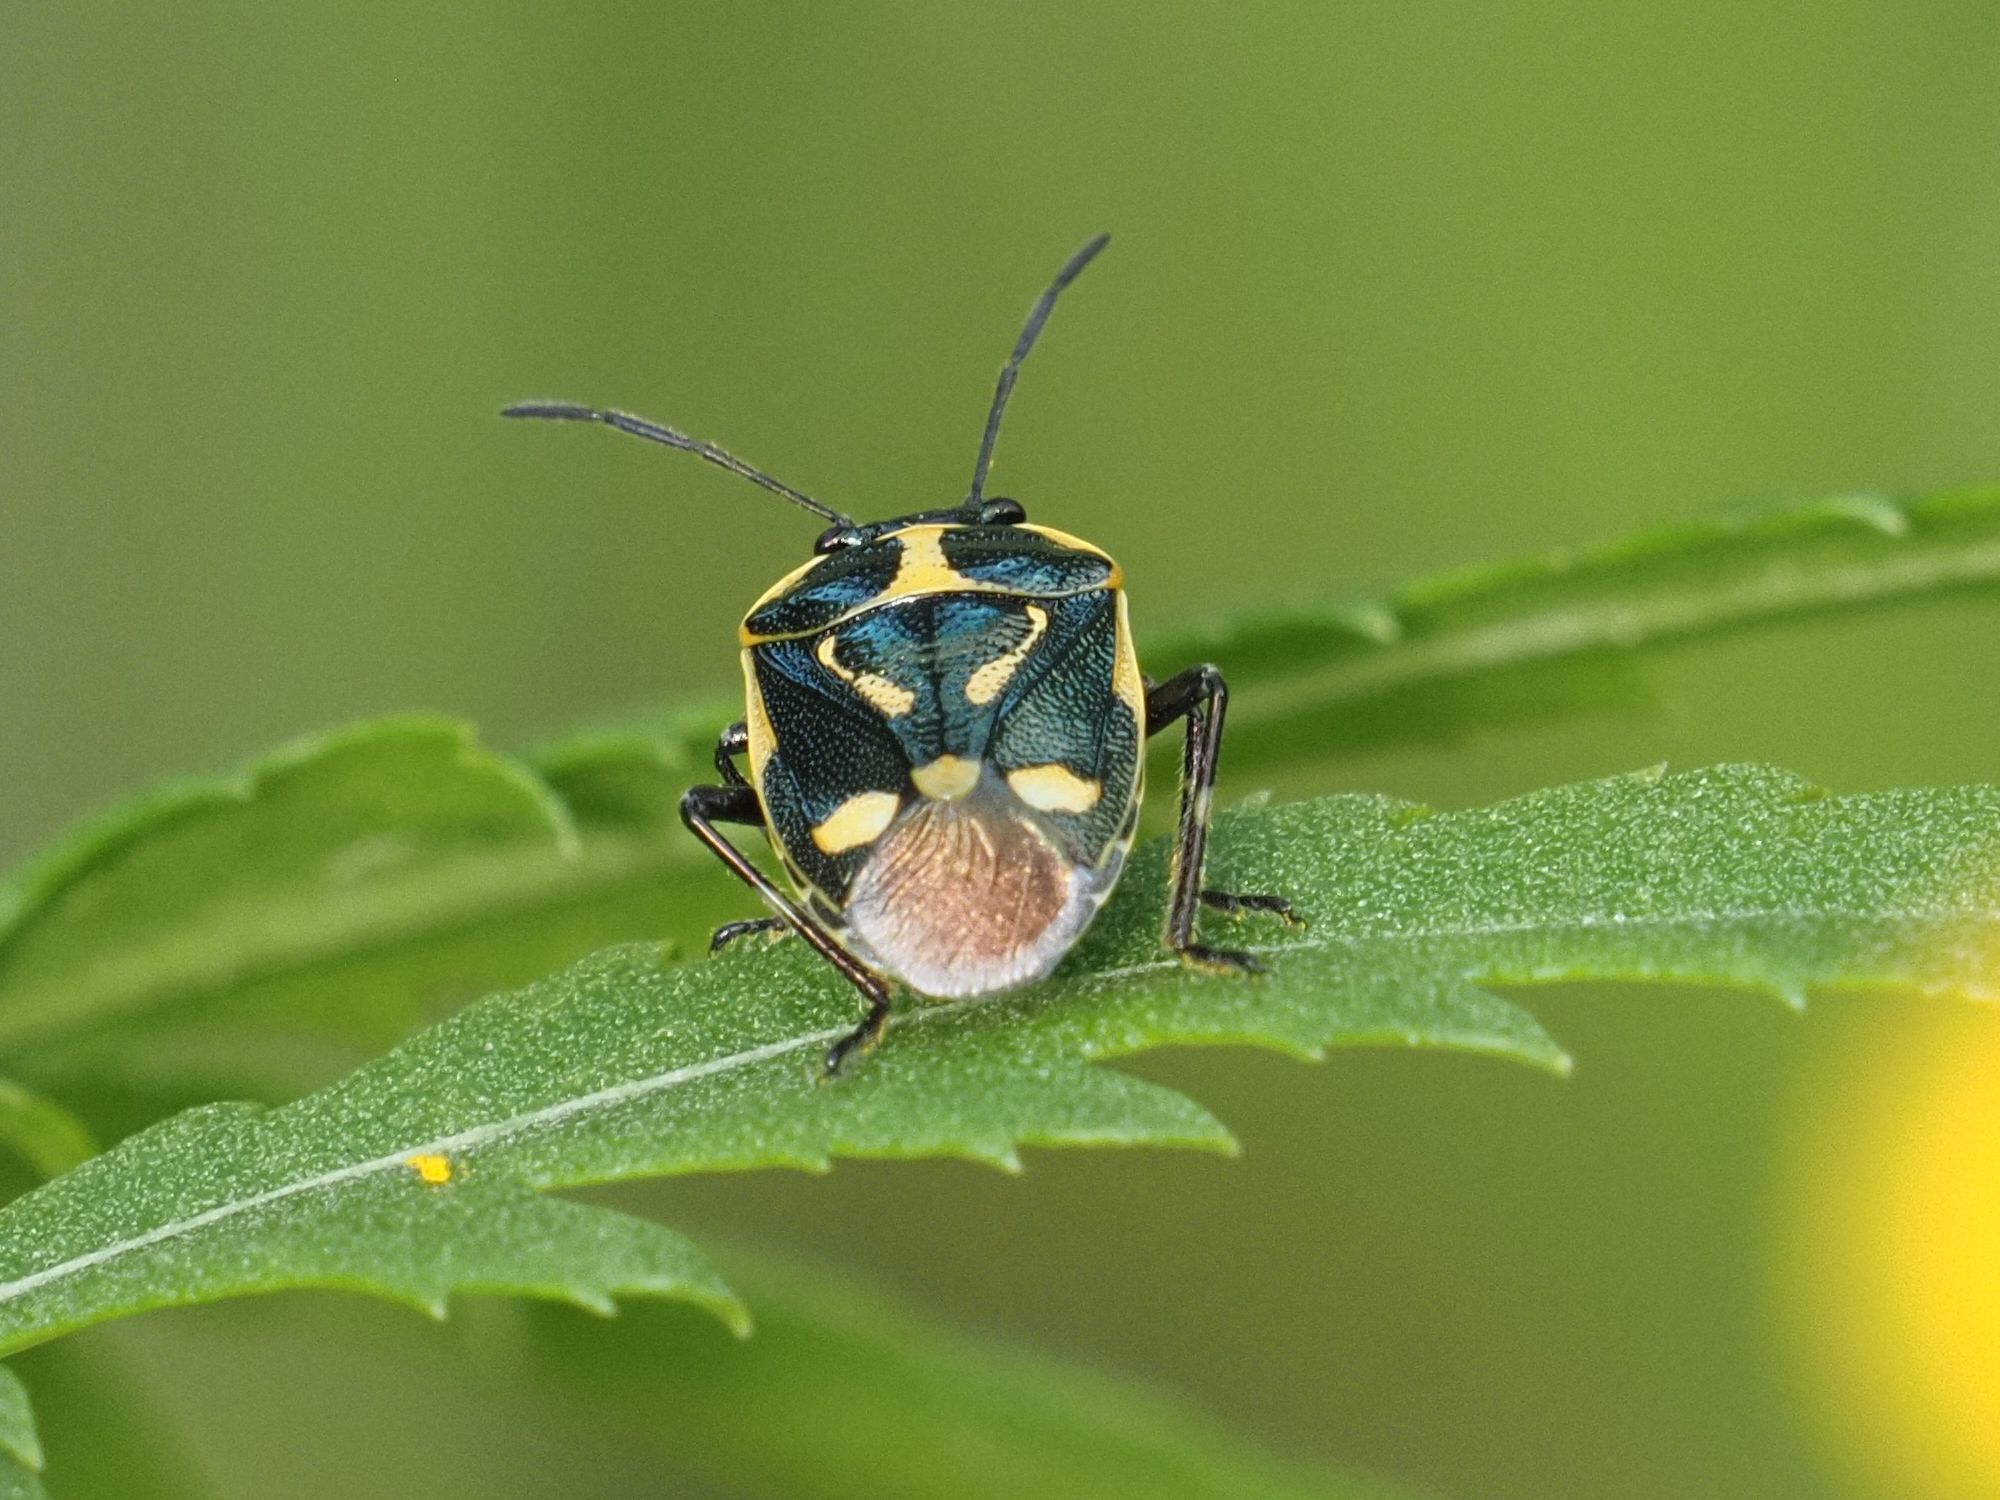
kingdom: Animalia
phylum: Arthropoda
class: Insecta
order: Hemiptera
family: Pentatomidae
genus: Eurydema
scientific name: Eurydema oleracea
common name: Cabbage bug
